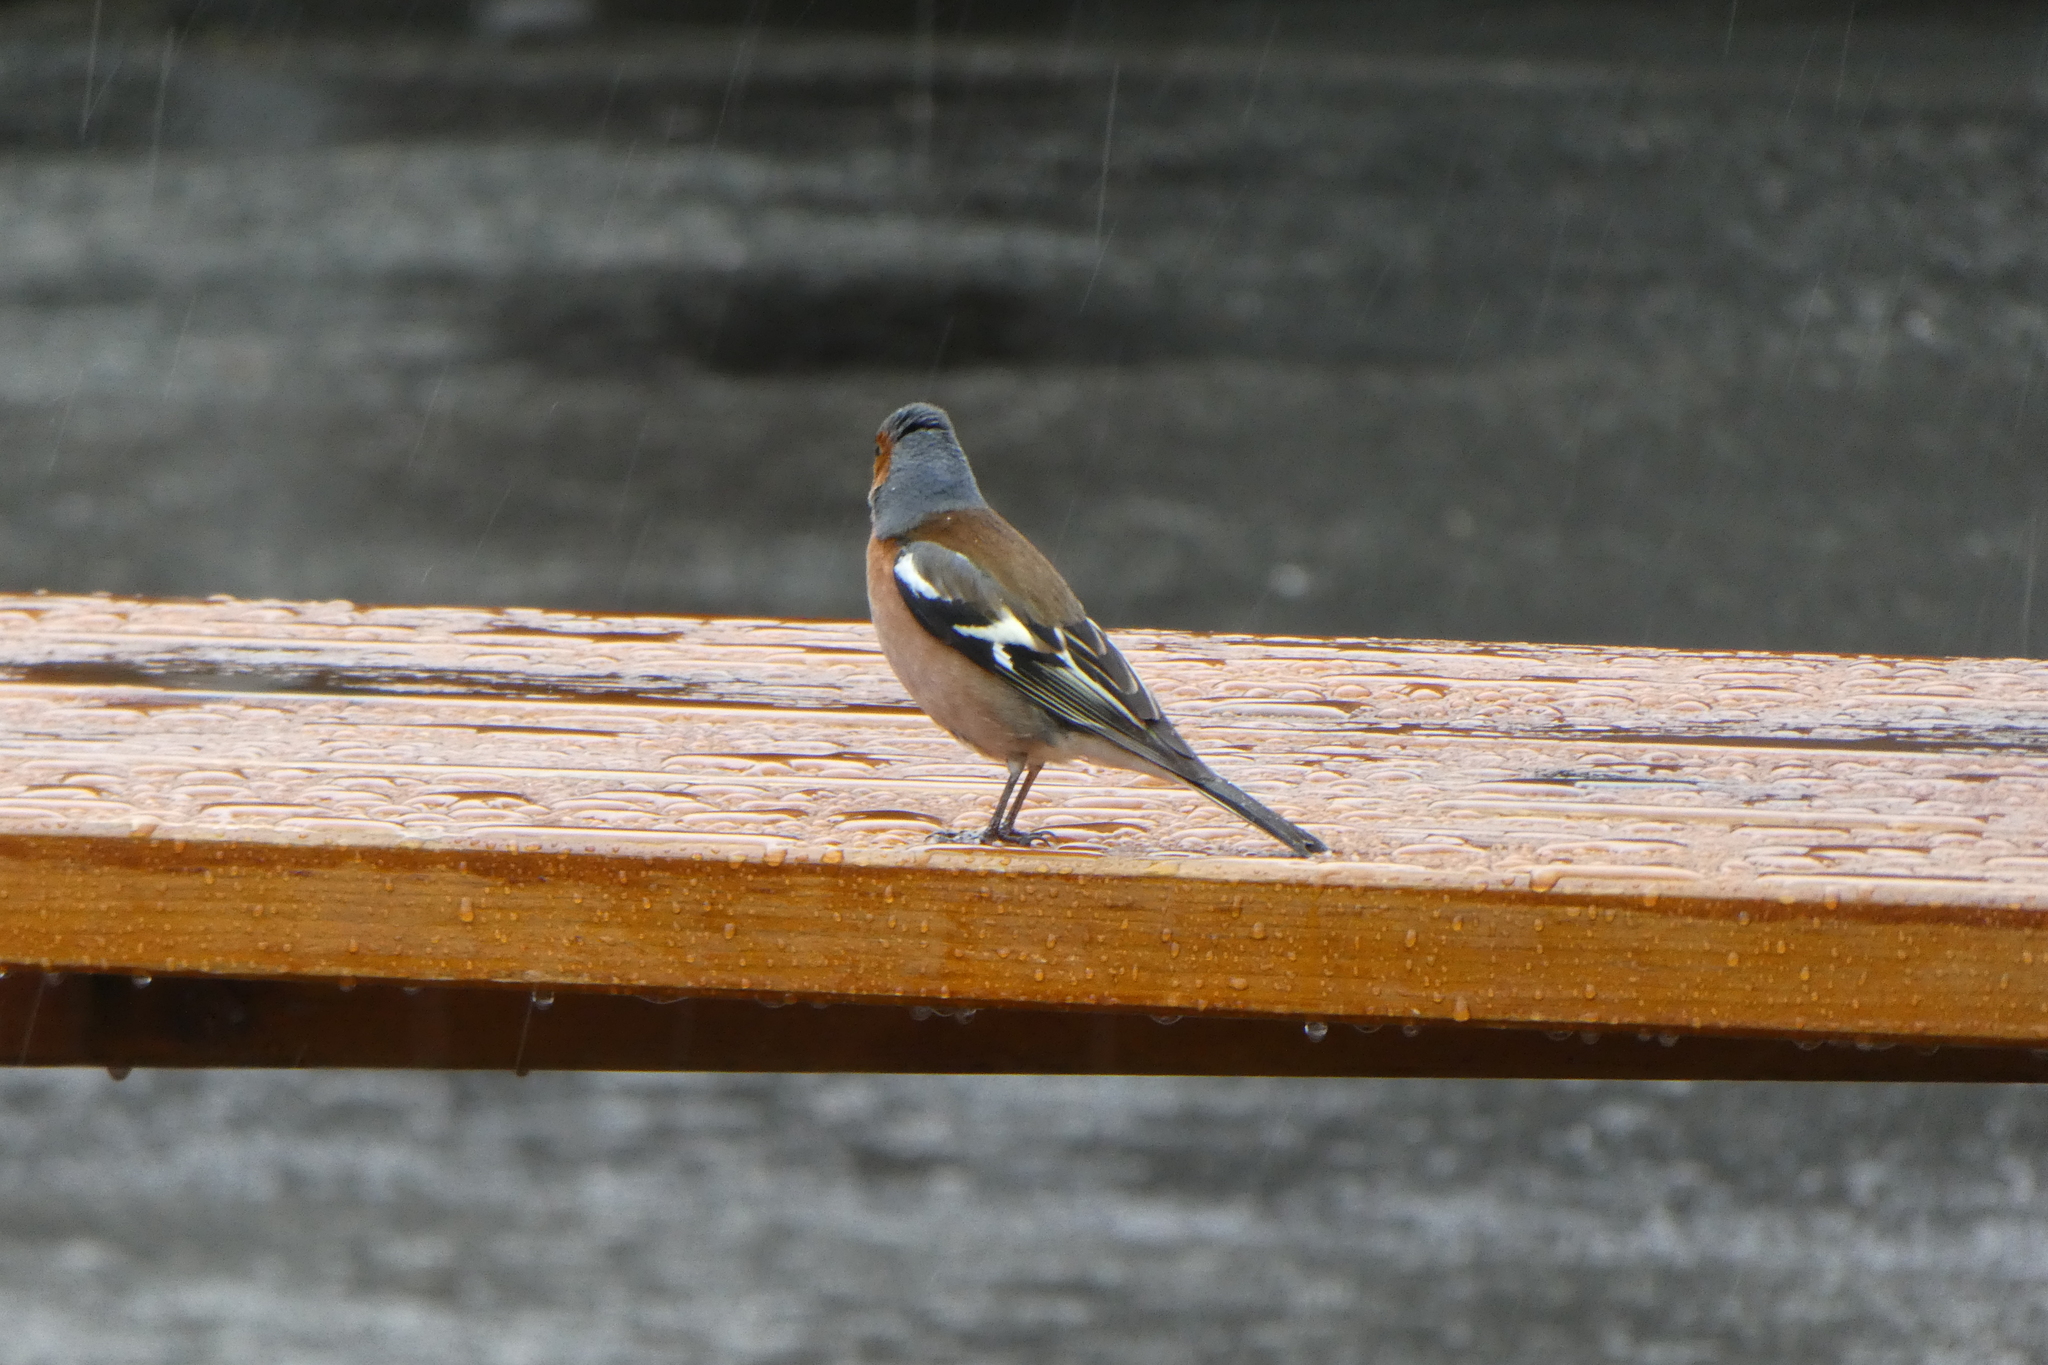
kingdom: Animalia
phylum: Chordata
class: Aves
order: Passeriformes
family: Fringillidae
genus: Fringilla
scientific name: Fringilla coelebs
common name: Common chaffinch
